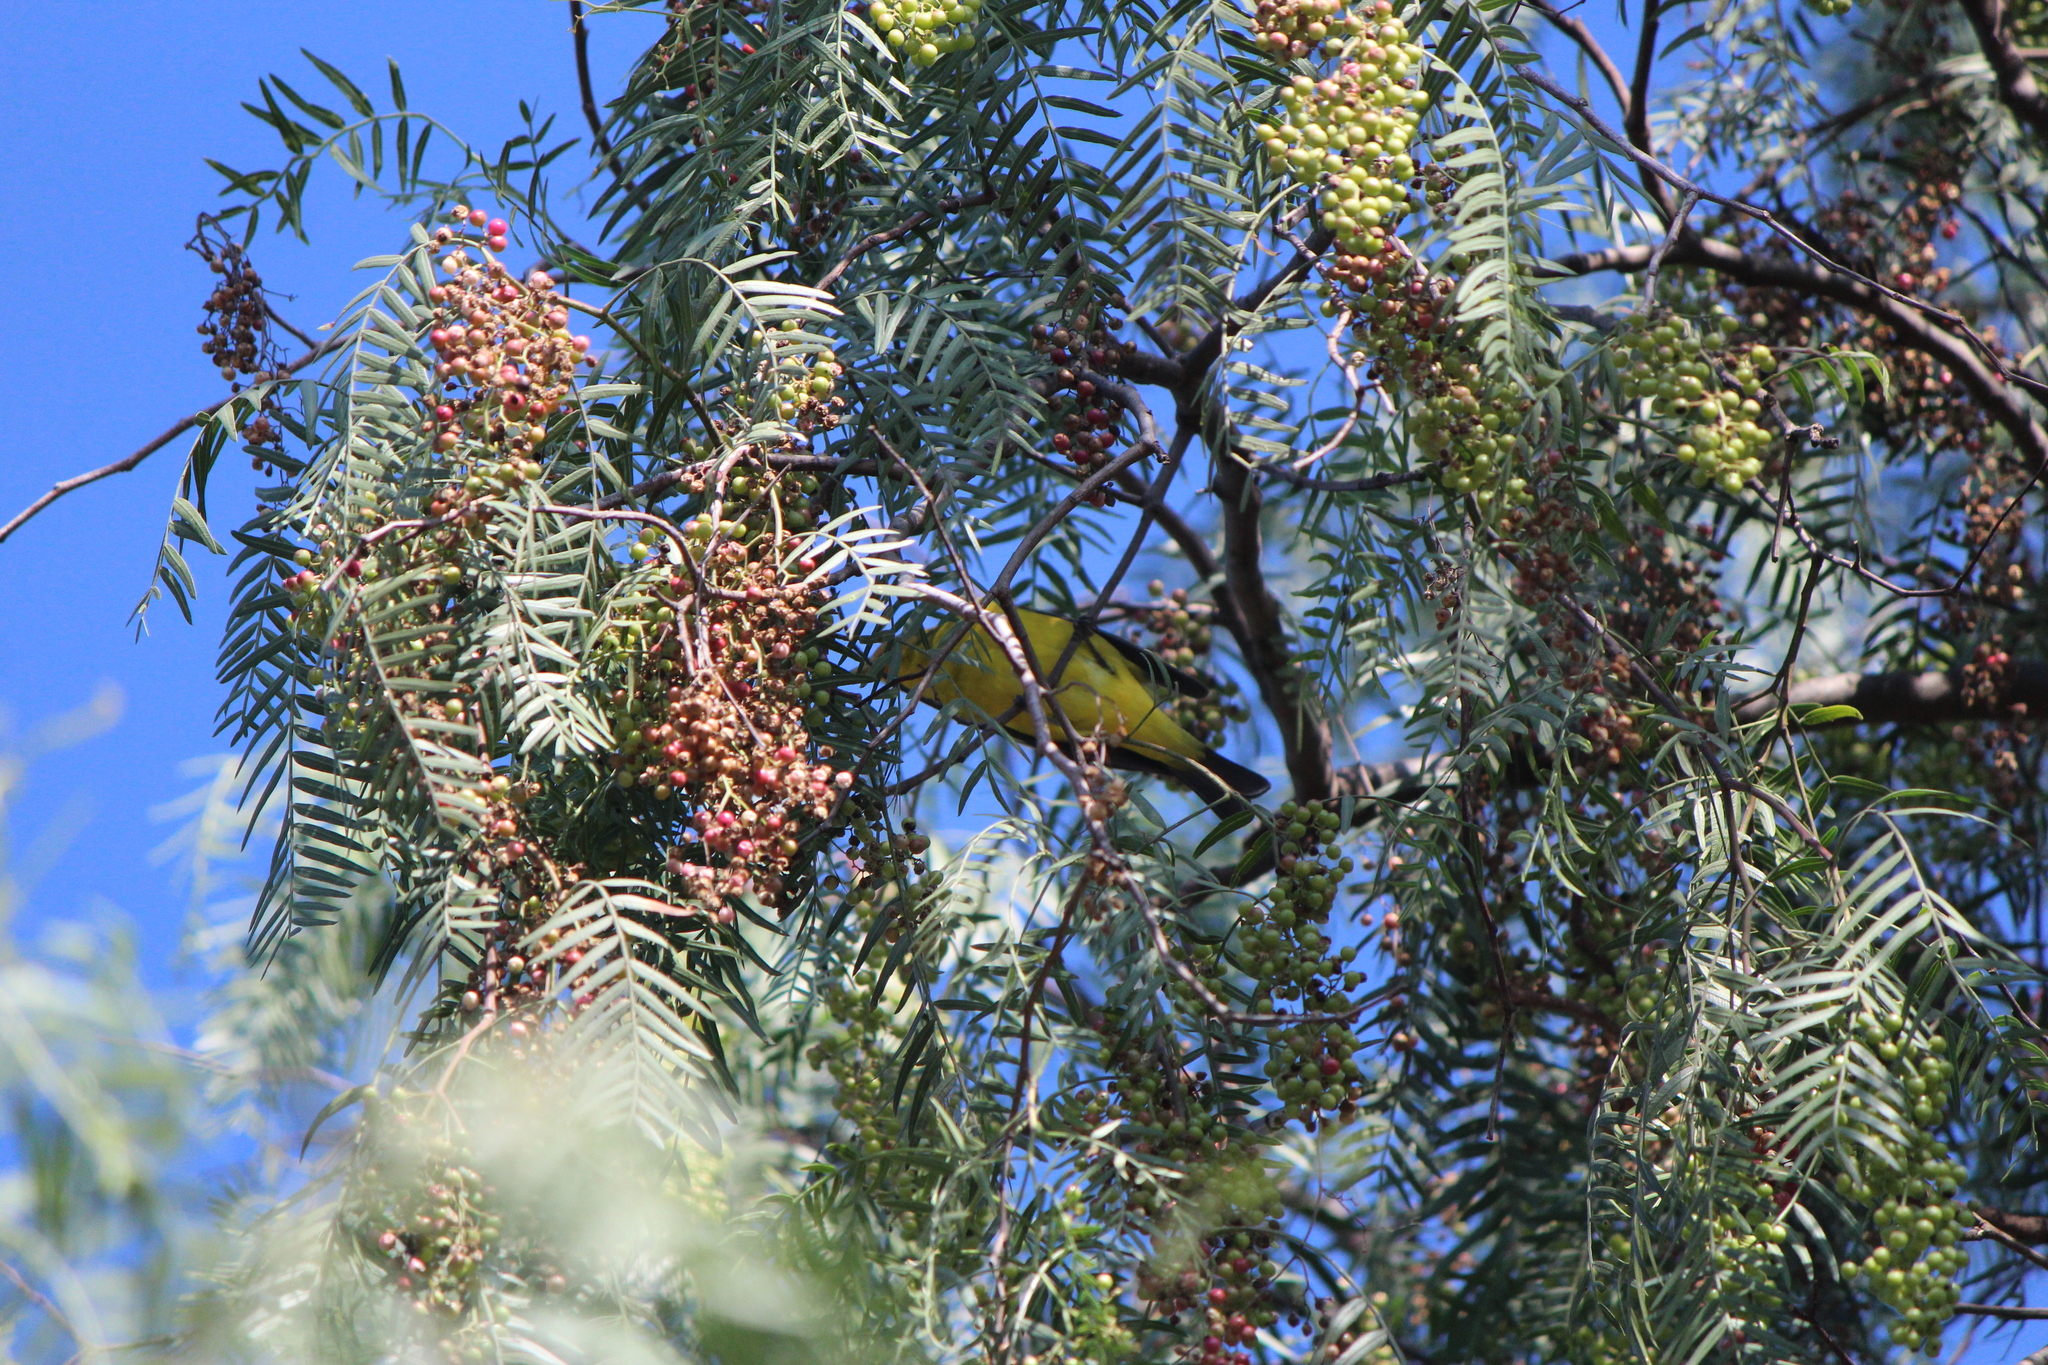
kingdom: Animalia
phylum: Chordata
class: Aves
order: Passeriformes
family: Cardinalidae
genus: Piranga
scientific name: Piranga ludoviciana
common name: Western tanager
